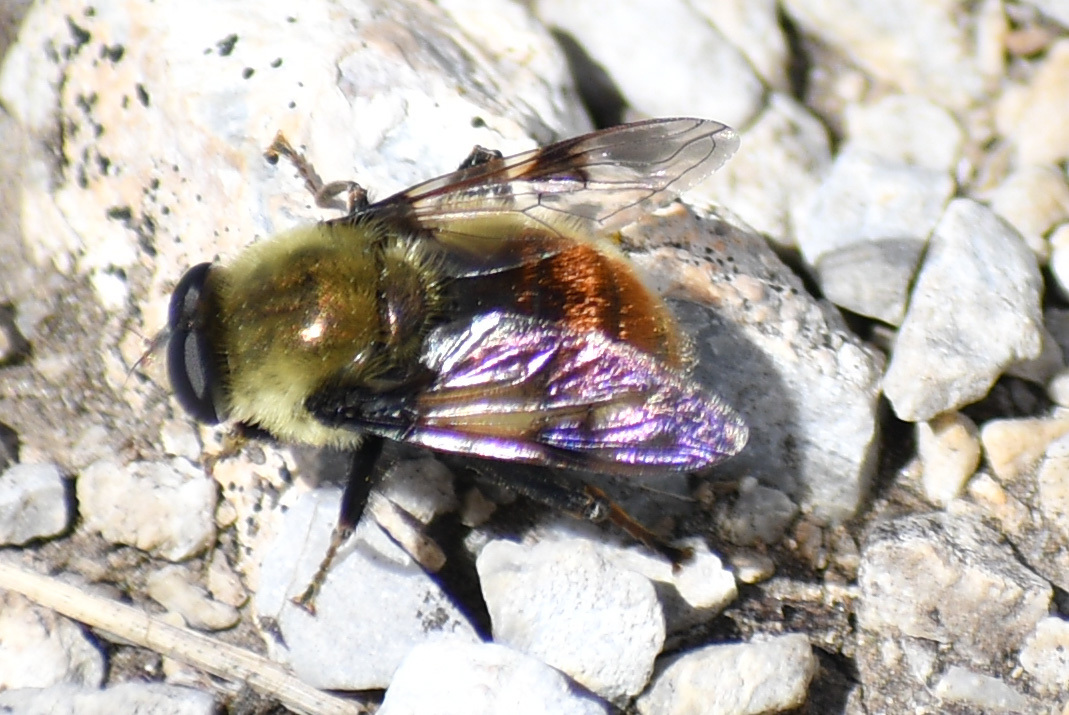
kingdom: Animalia
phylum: Arthropoda
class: Insecta
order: Diptera
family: Syrphidae
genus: Sericomyia
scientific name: Sericomyia flagrans
